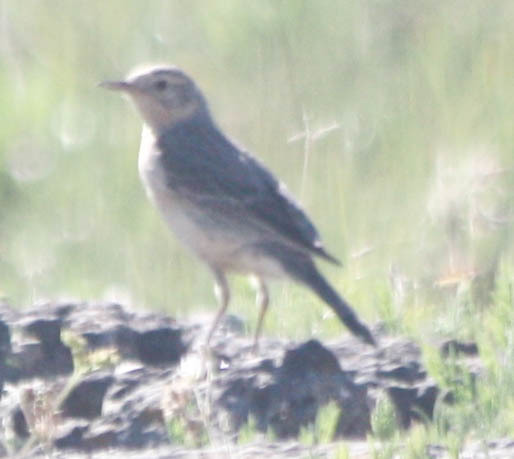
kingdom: Animalia
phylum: Chordata
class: Aves
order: Passeriformes
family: Motacillidae
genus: Anthus
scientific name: Anthus rubescens
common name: Buff-bellied pipit
